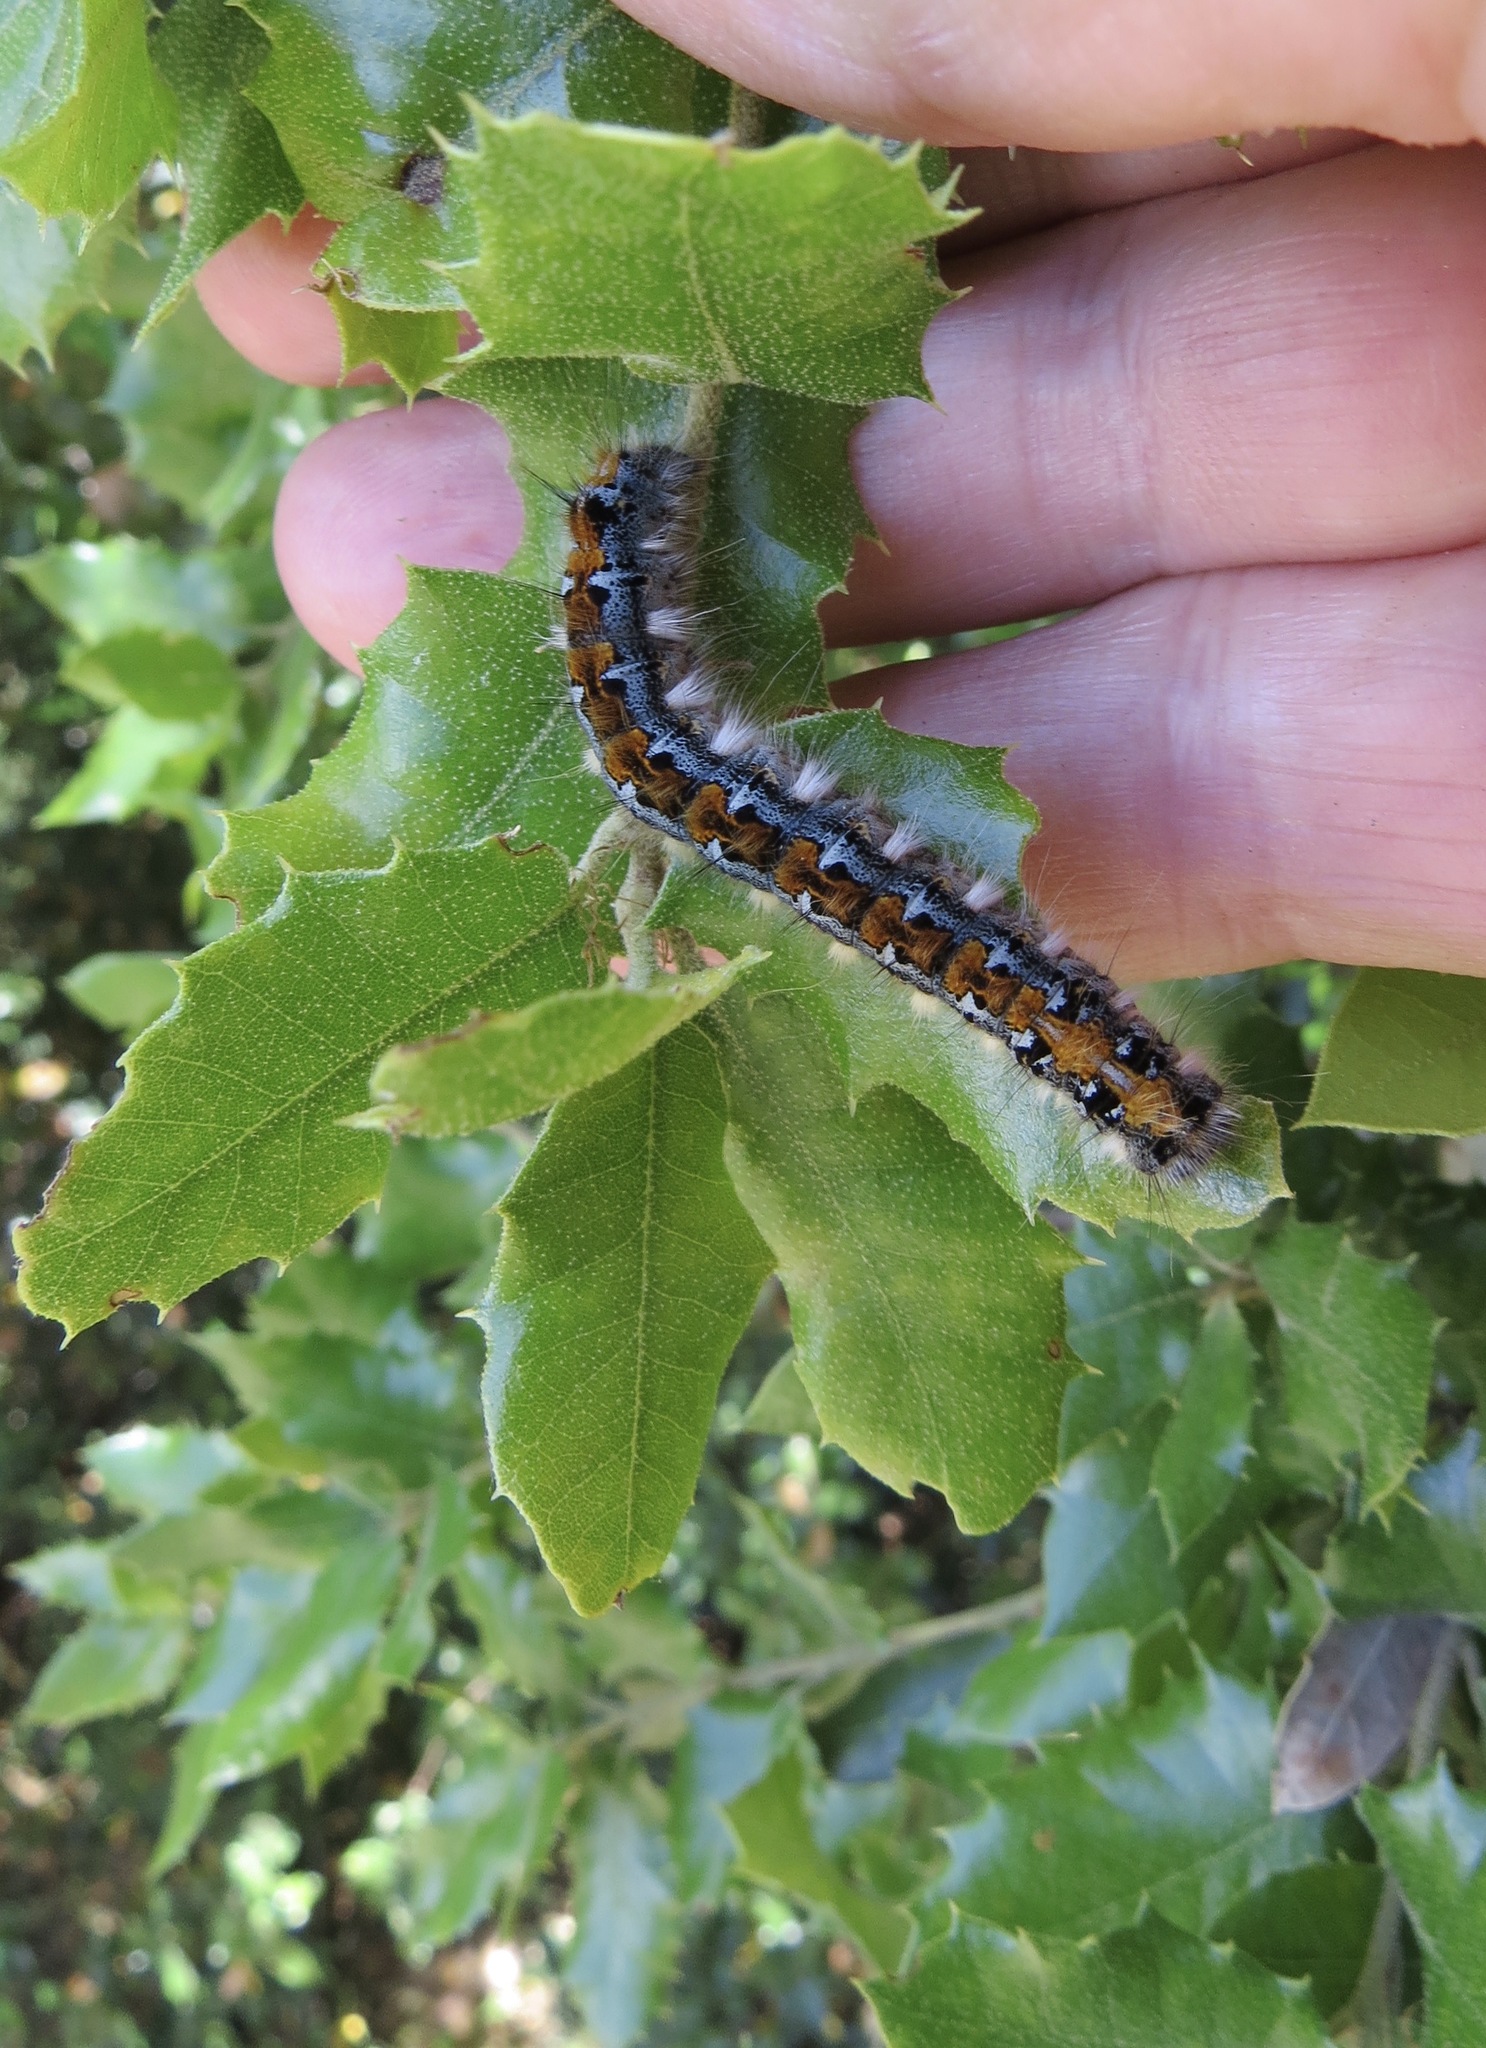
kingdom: Animalia
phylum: Arthropoda
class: Insecta
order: Lepidoptera
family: Lasiocampidae
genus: Malacosoma
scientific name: Malacosoma constricta
